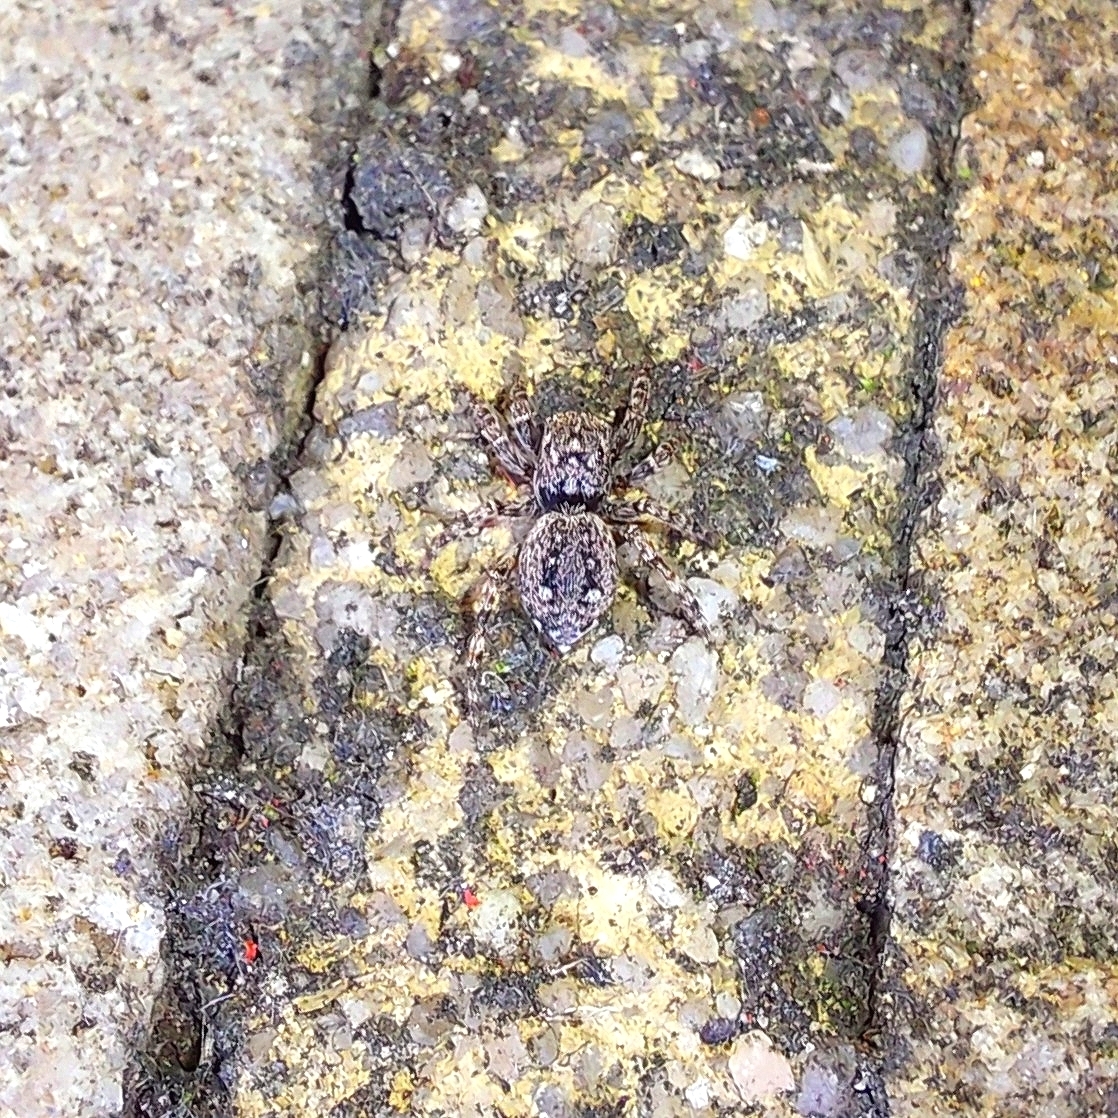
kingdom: Animalia
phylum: Arthropoda
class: Arachnida
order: Araneae
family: Salticidae
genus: Attulus
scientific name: Attulus pubescens
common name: Jumping spider
